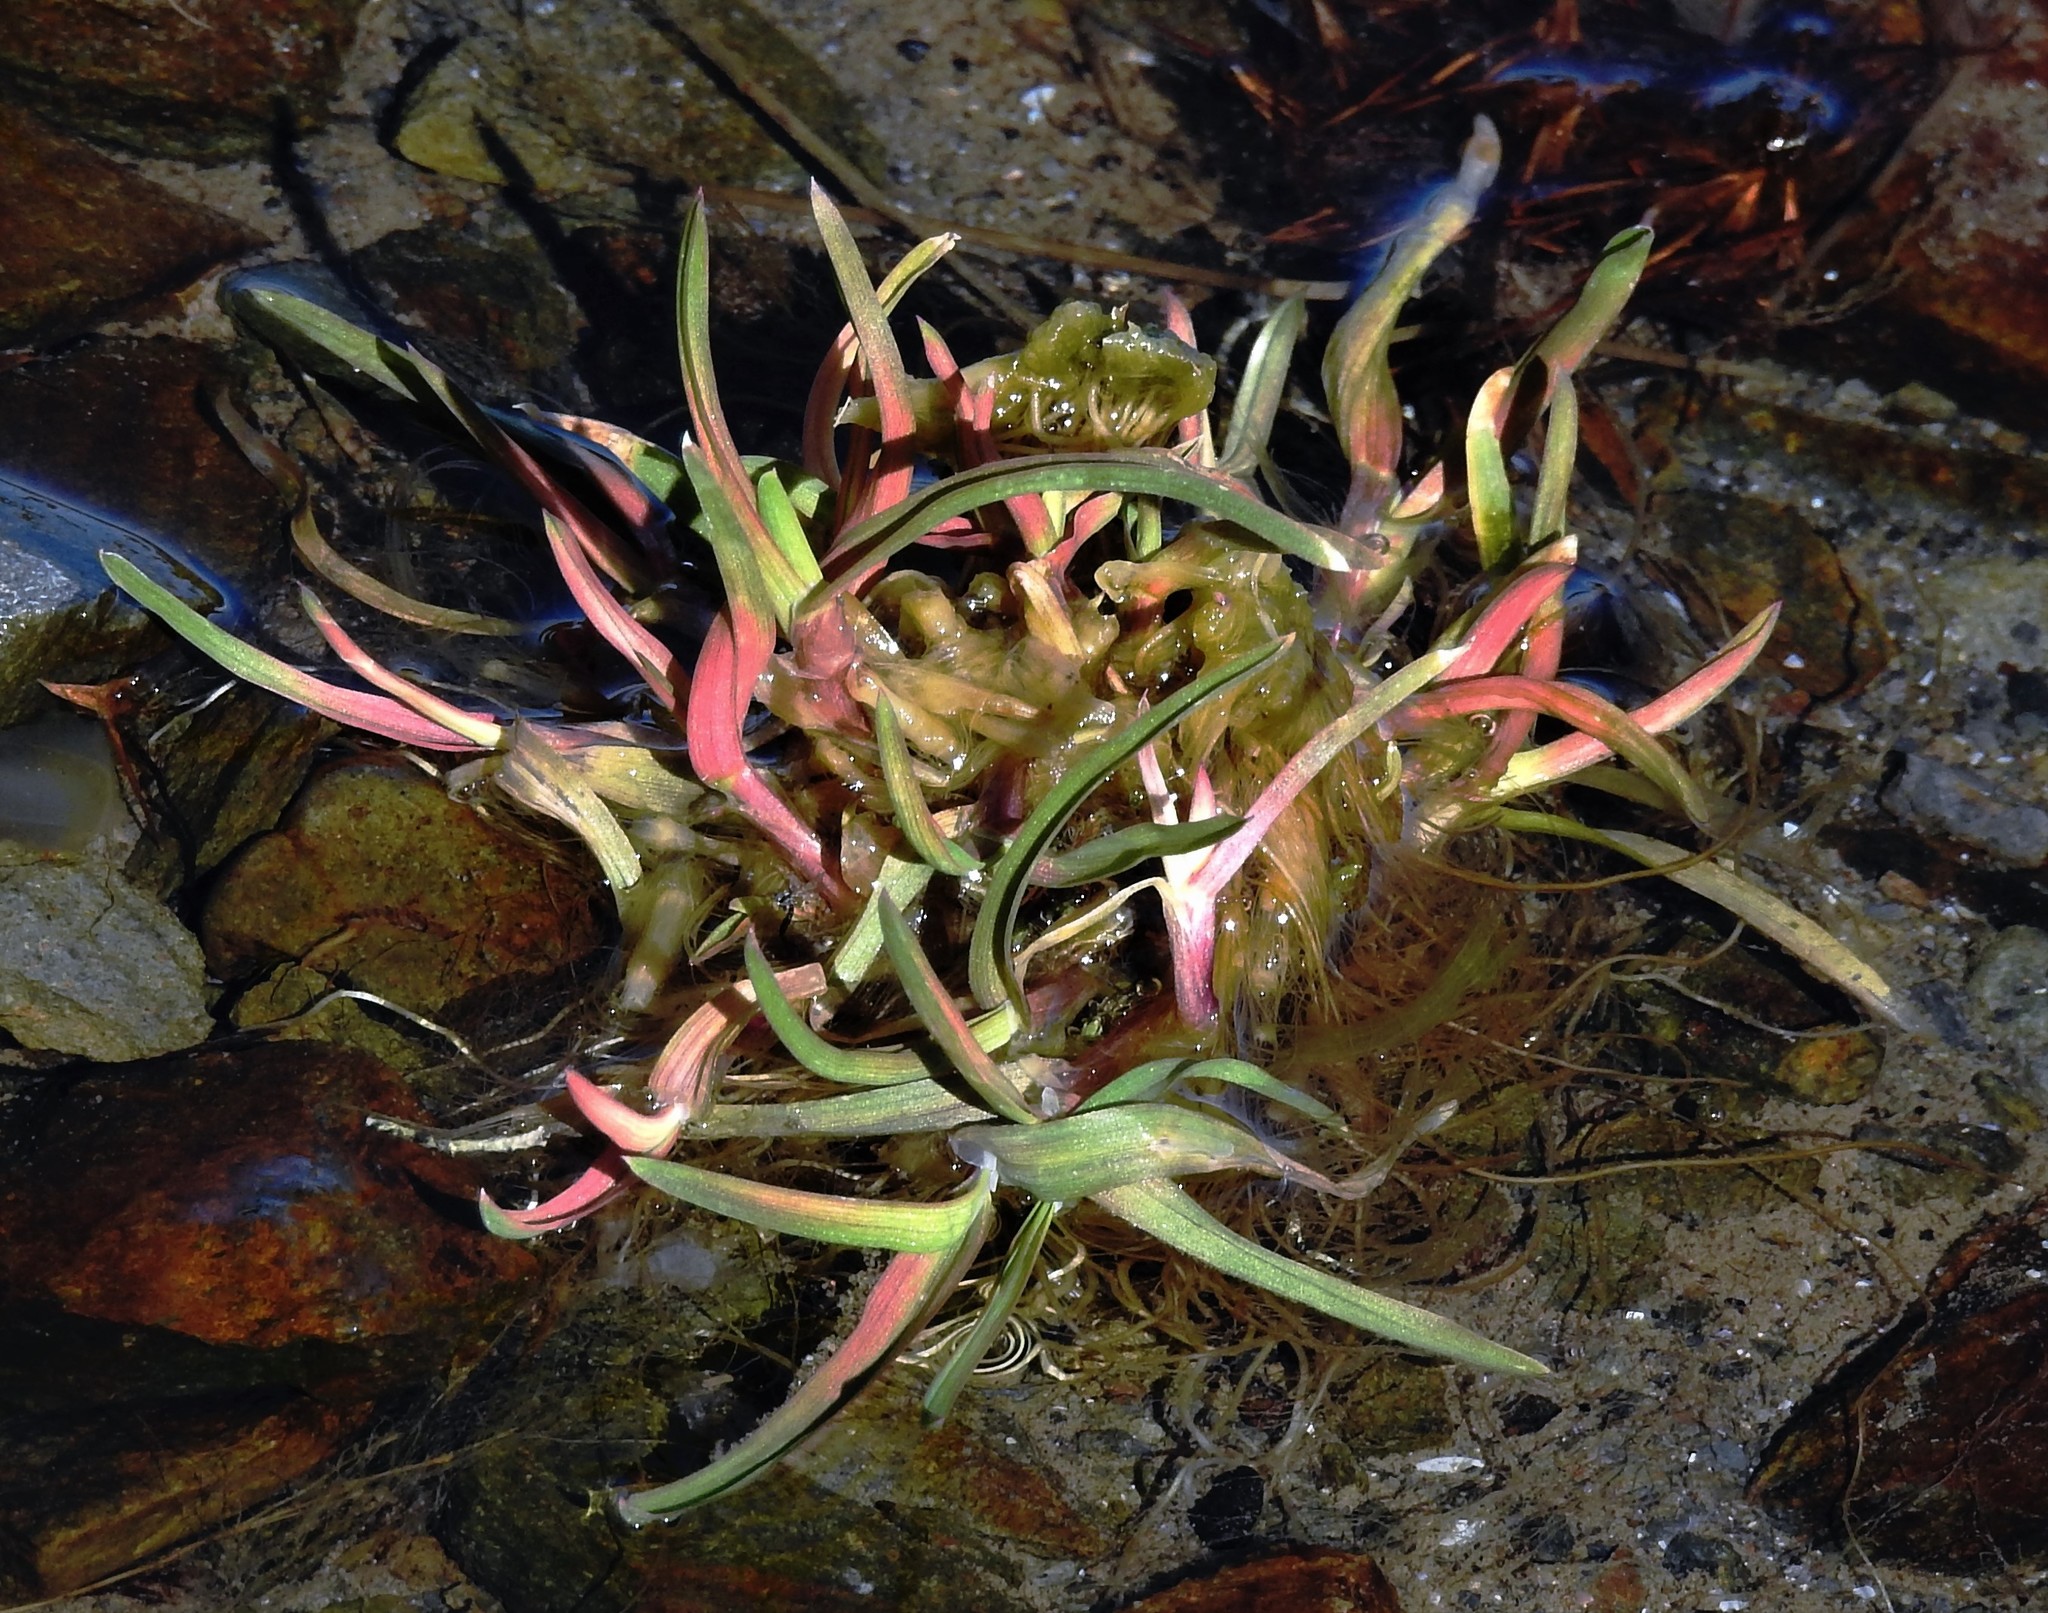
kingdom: Plantae
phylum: Tracheophyta
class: Liliopsida
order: Poales
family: Poaceae
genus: Poa
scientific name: Poa annua
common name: Annual bluegrass
